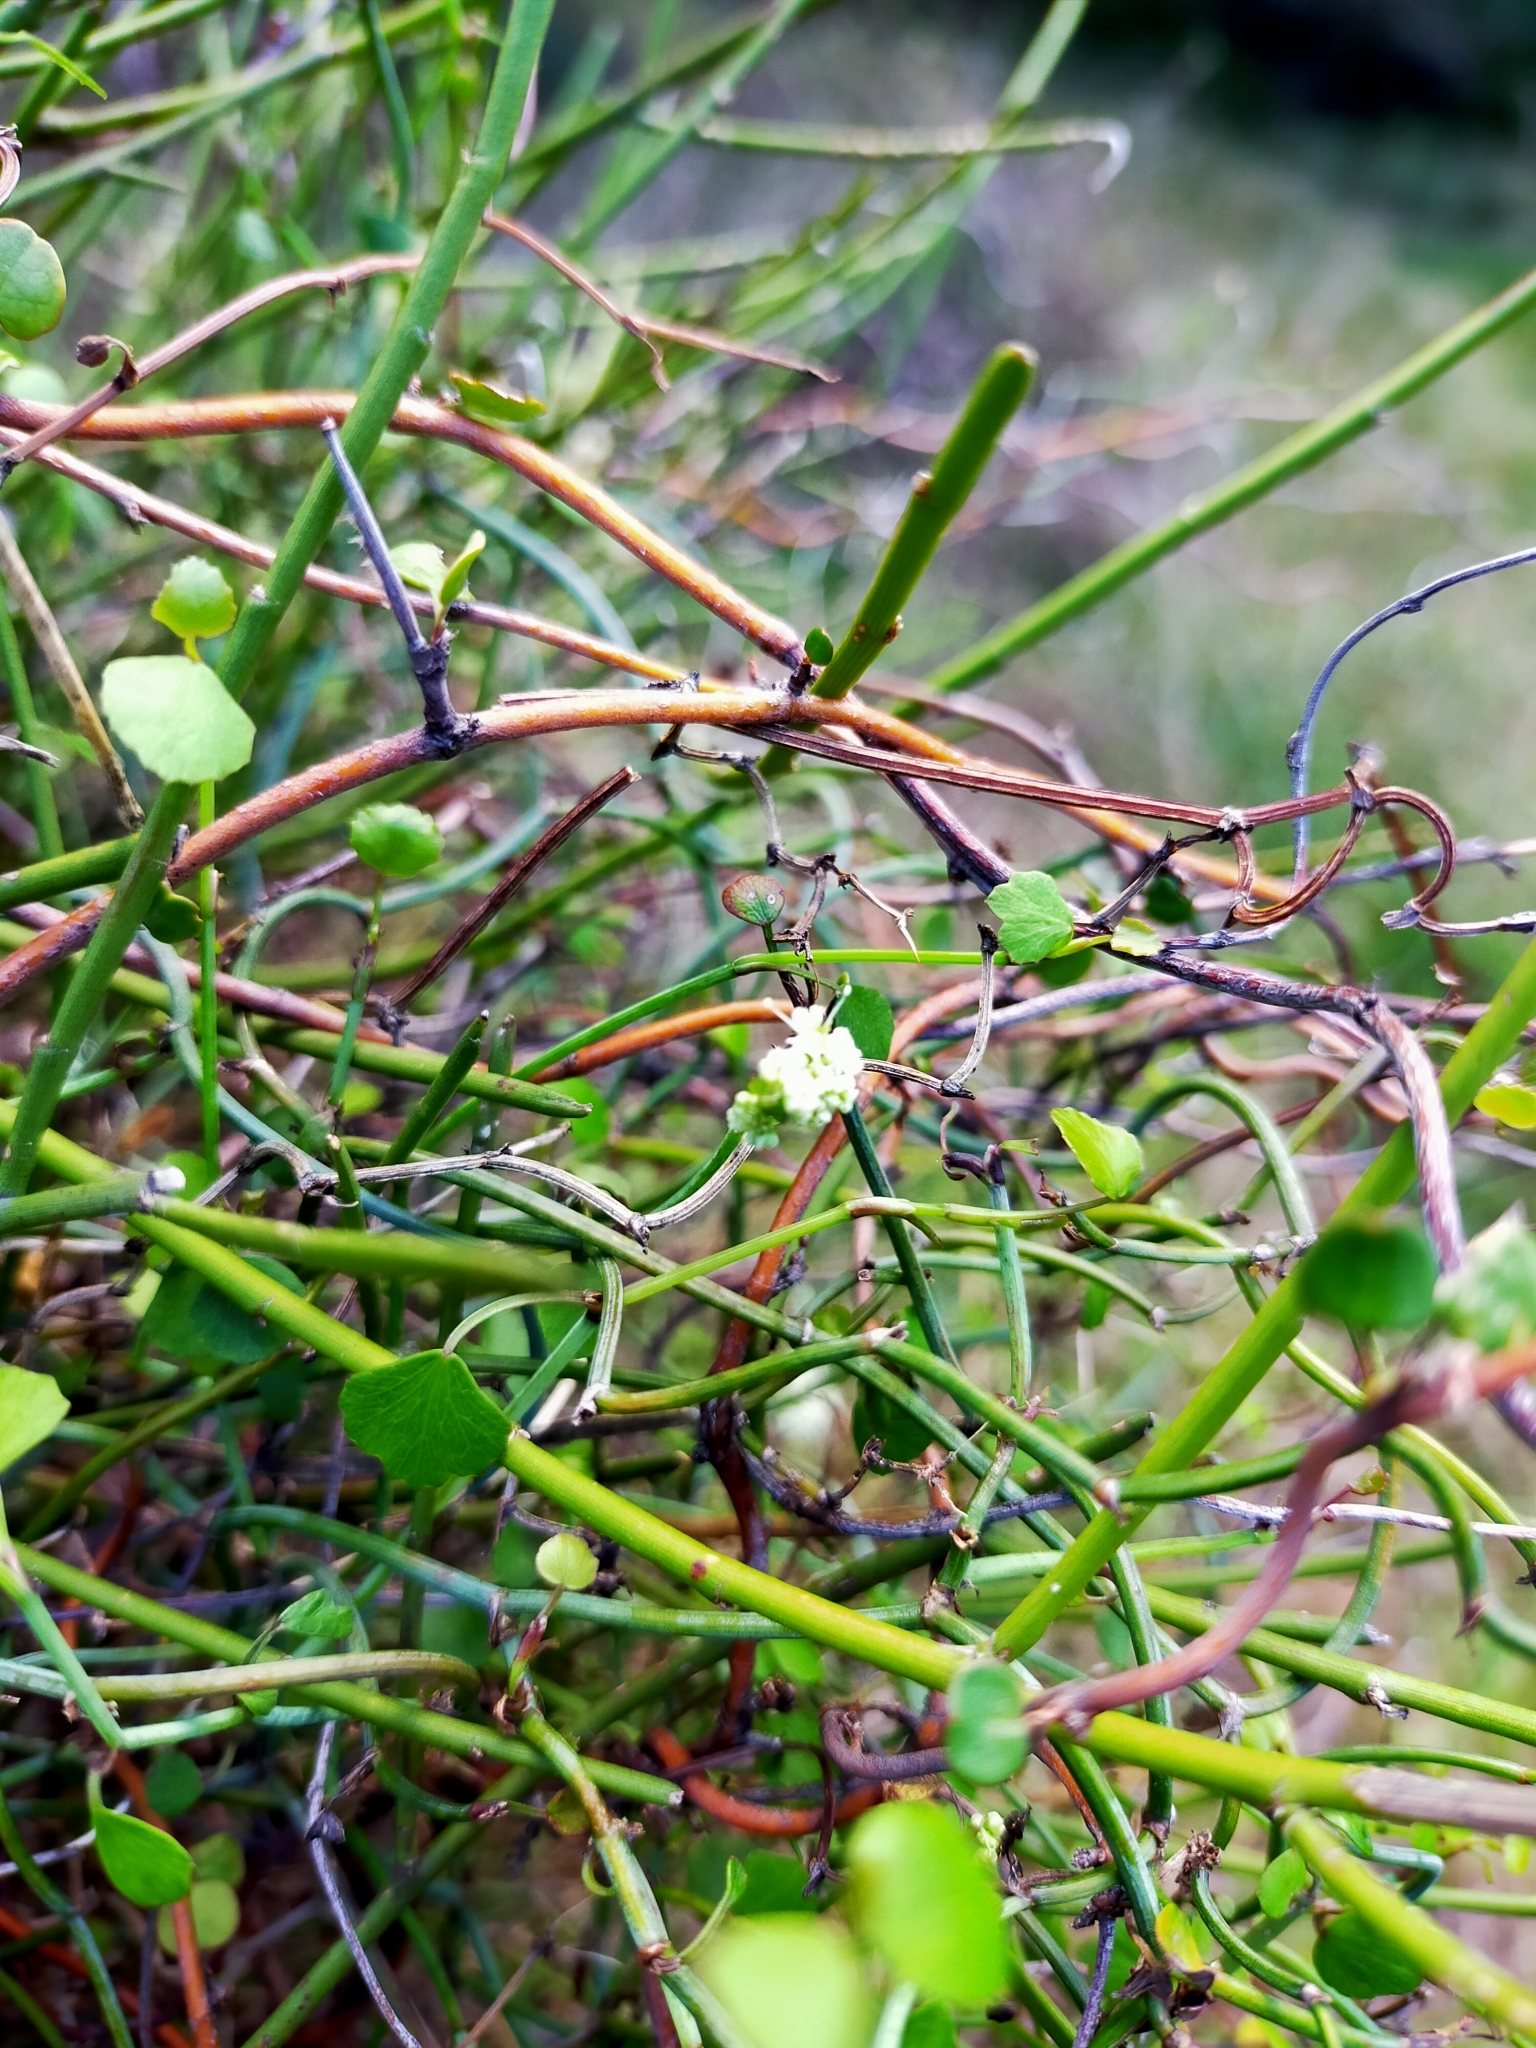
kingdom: Plantae
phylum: Tracheophyta
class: Magnoliopsida
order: Apiales
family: Apiaceae
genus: Scandia
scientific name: Scandia geniculata
